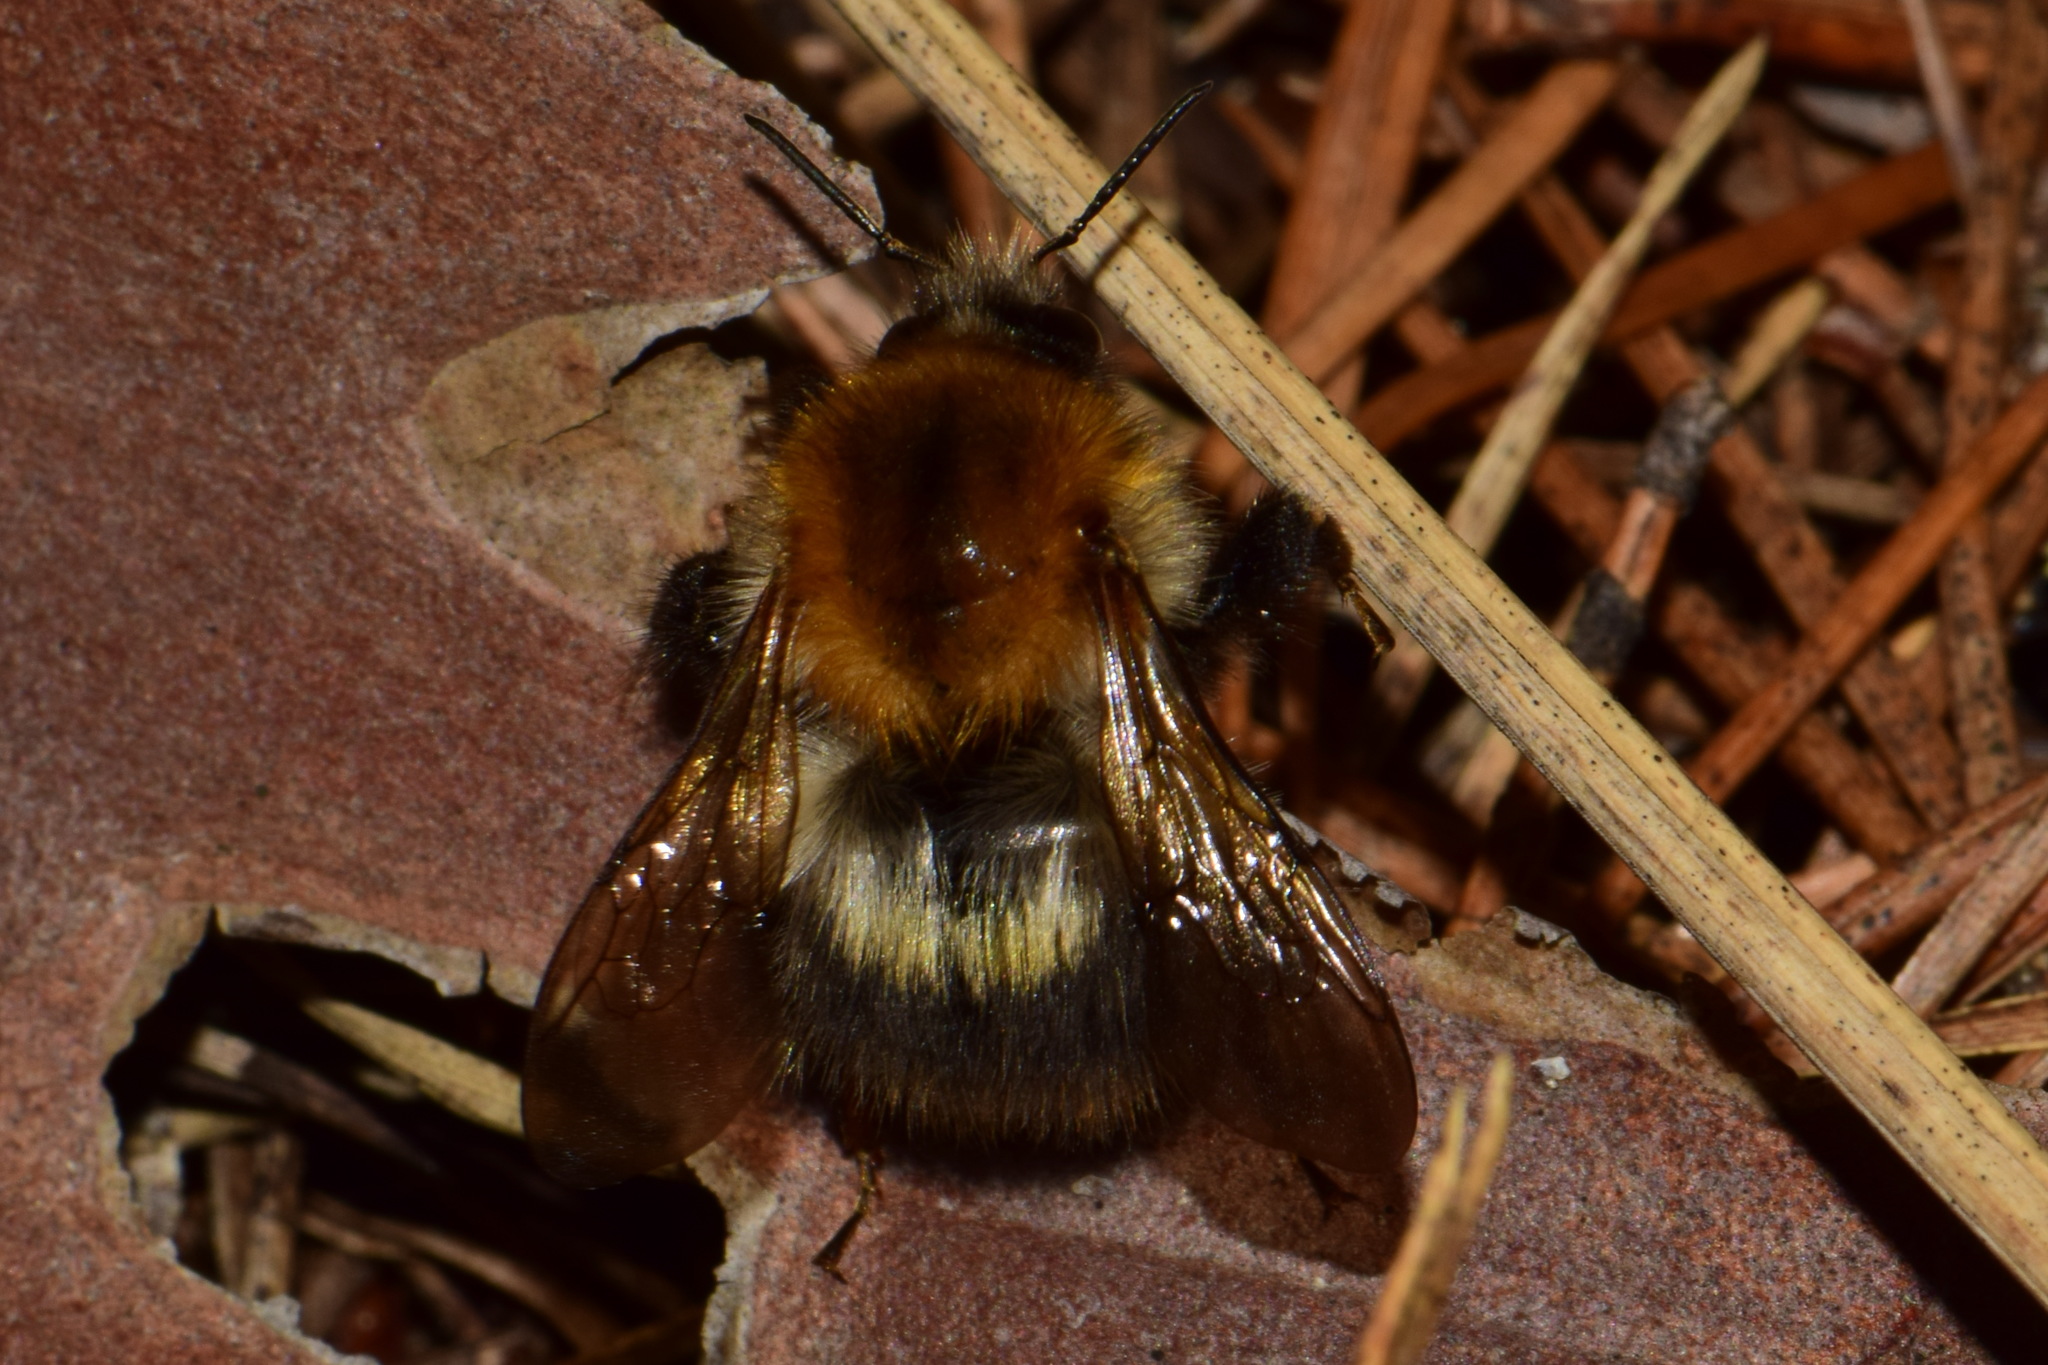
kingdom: Animalia
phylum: Arthropoda
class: Insecta
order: Hymenoptera
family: Apidae
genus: Bombus
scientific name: Bombus pascuorum
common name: Common carder bee
